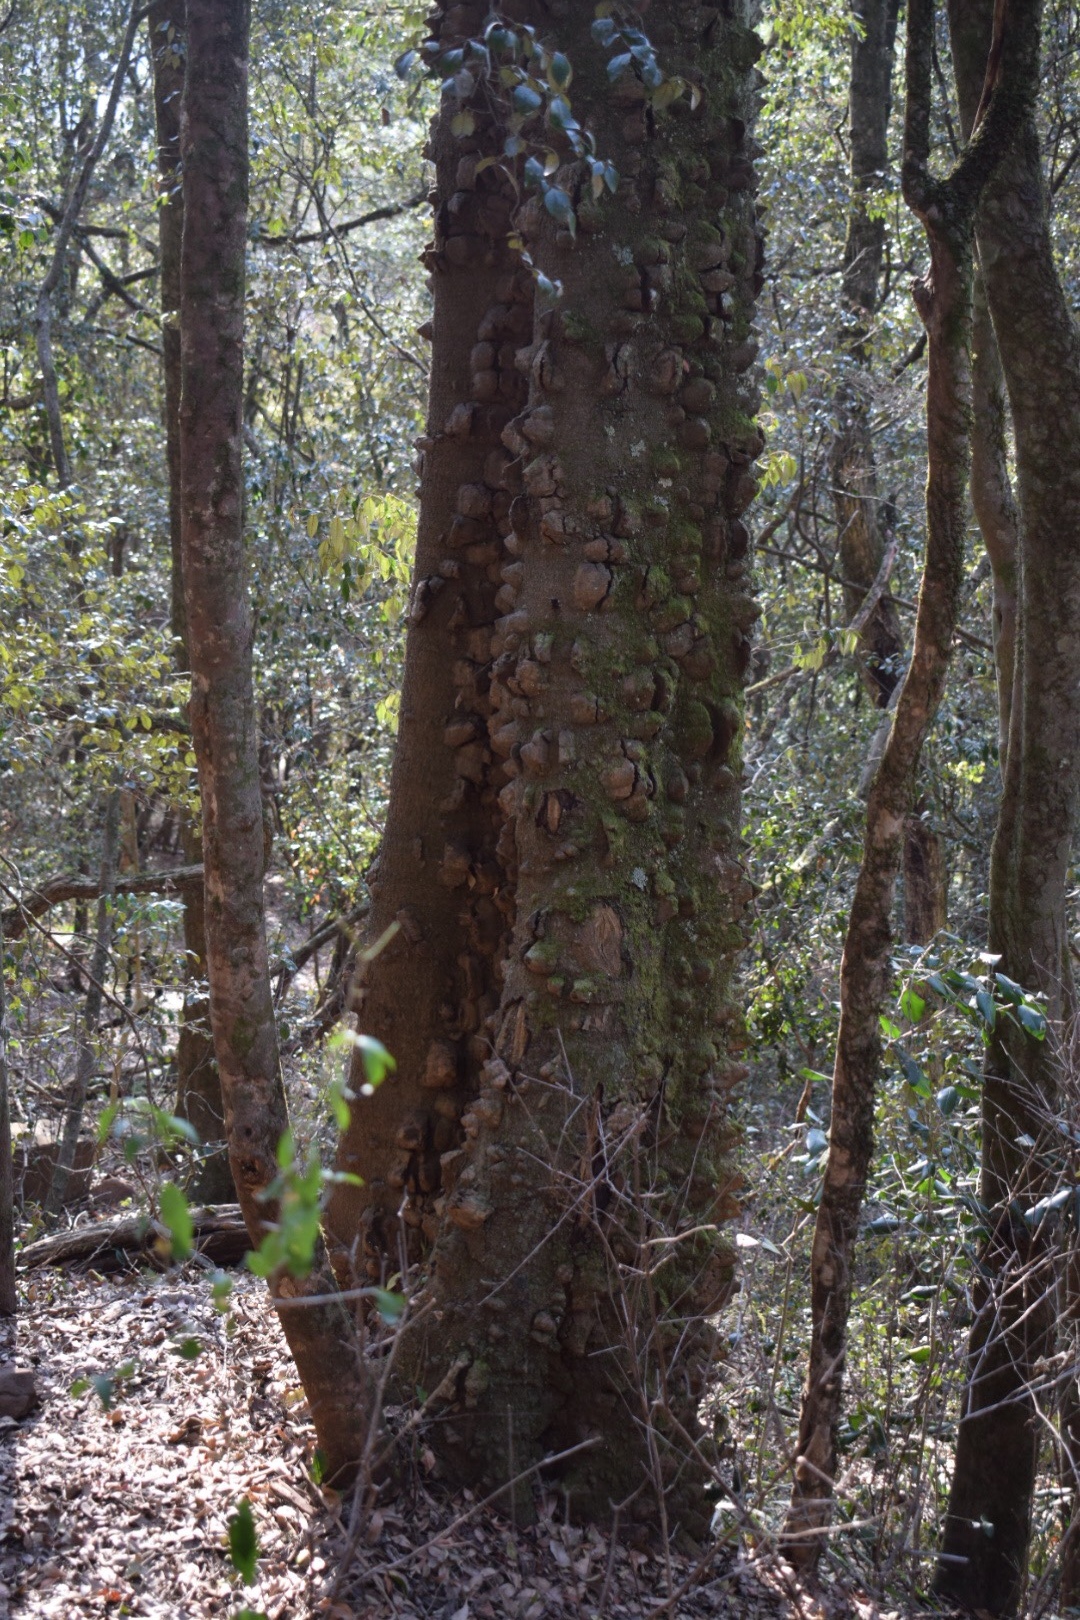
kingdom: Plantae
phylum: Tracheophyta
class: Magnoliopsida
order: Sapindales
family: Rutaceae
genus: Zanthoxylum
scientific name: Zanthoxylum davyi
